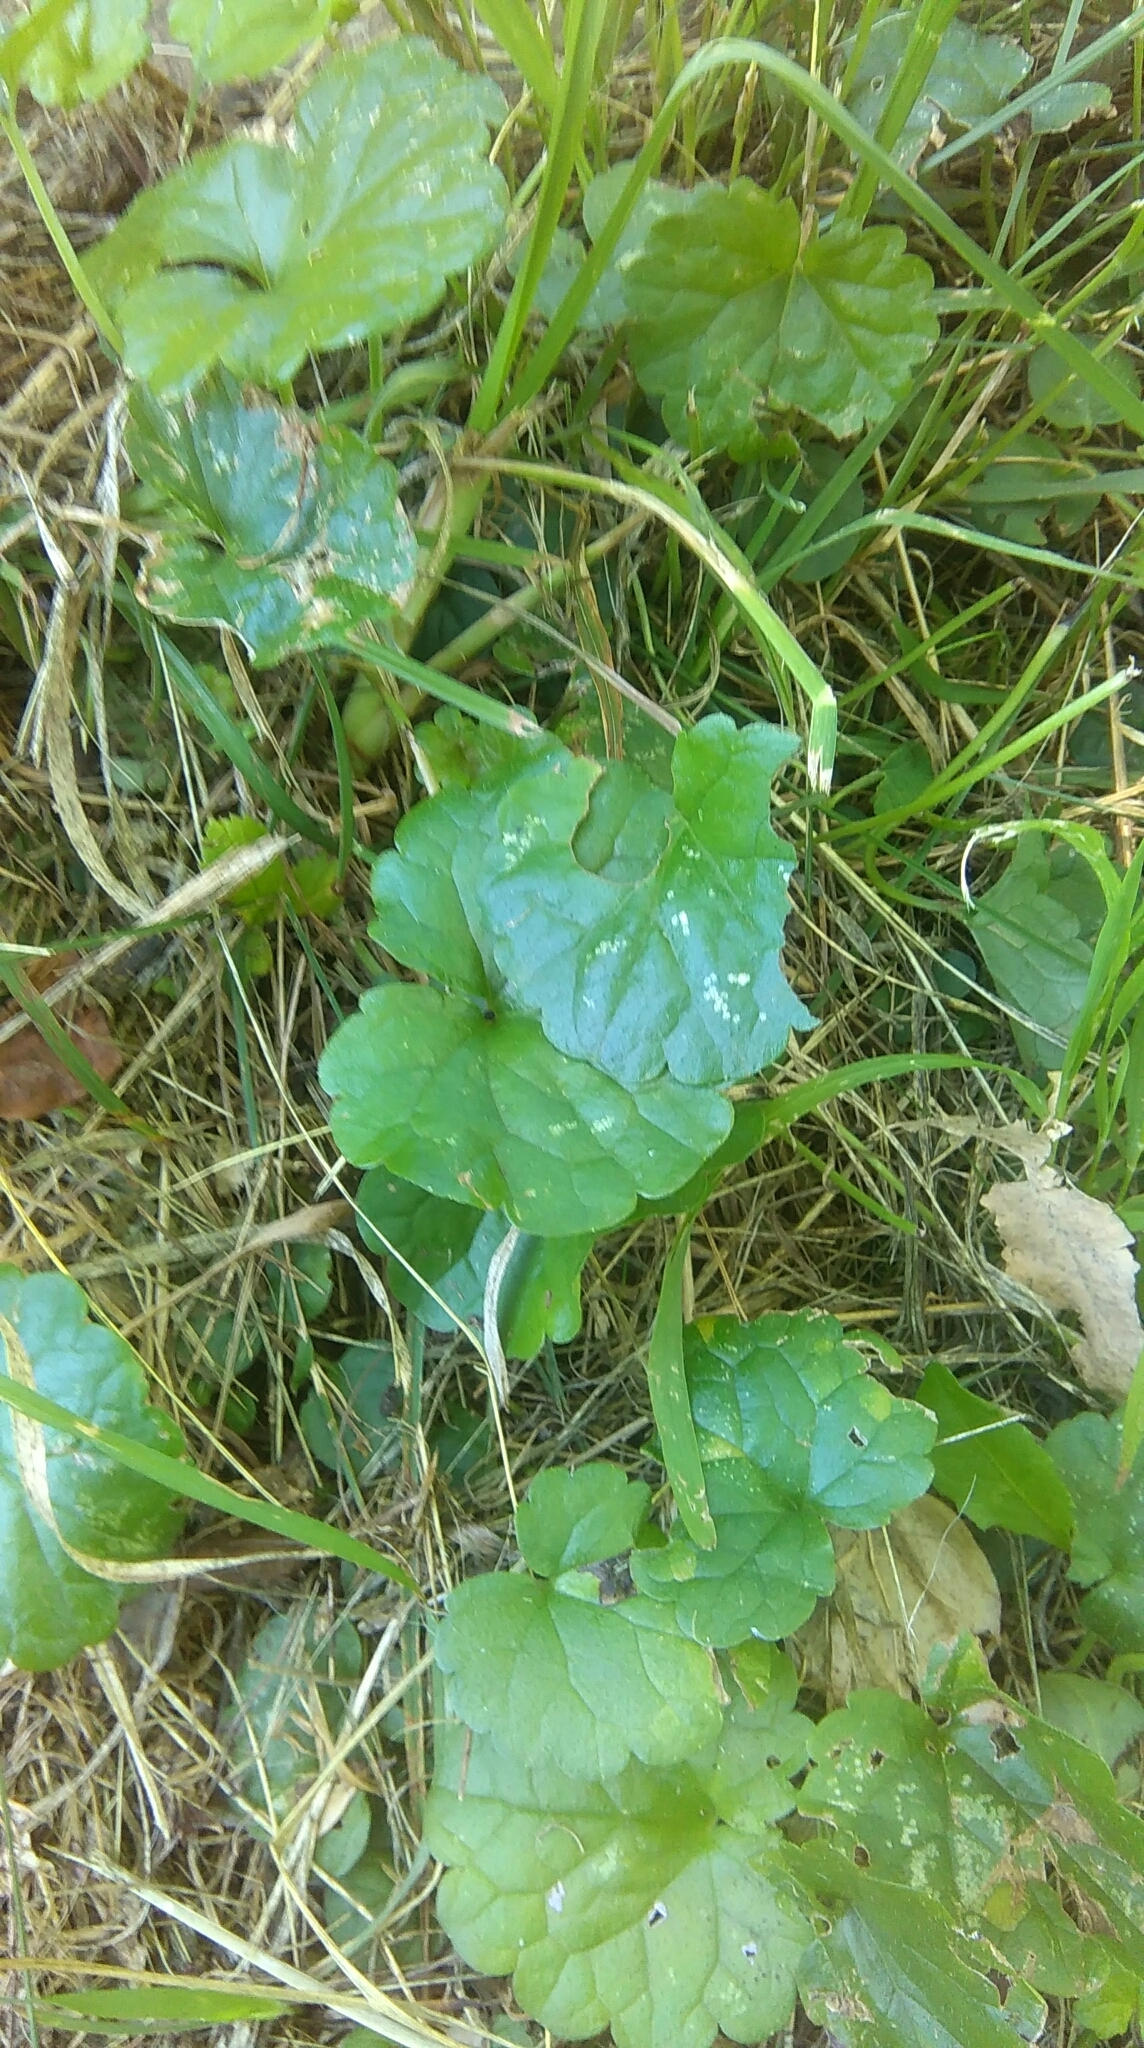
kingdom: Plantae
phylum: Tracheophyta
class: Magnoliopsida
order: Lamiales
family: Lamiaceae
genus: Glechoma
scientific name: Glechoma hederacea
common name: Ground ivy
